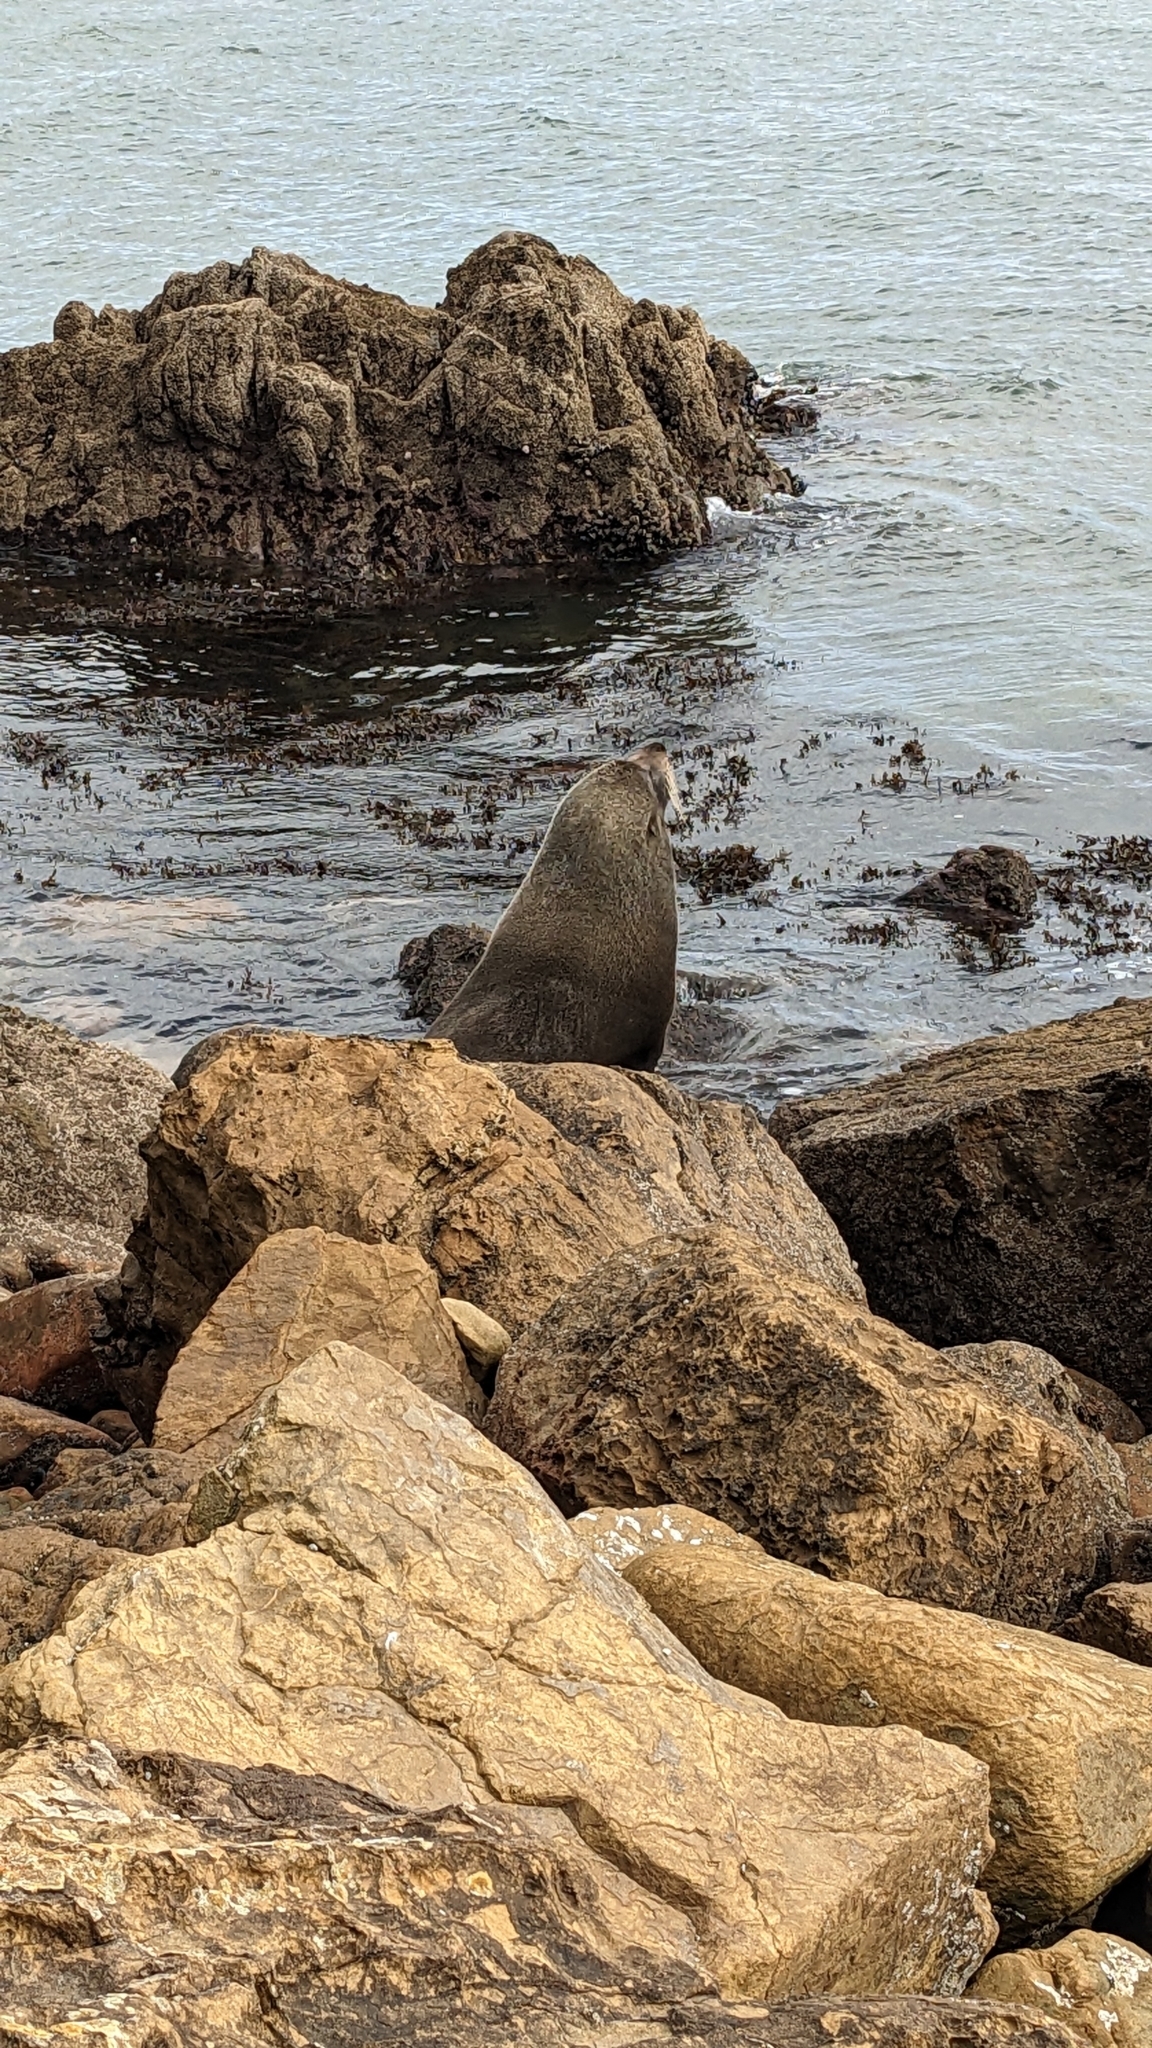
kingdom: Animalia
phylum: Chordata
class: Mammalia
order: Carnivora
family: Otariidae
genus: Arctocephalus
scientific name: Arctocephalus forsteri
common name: New zealand fur seal
